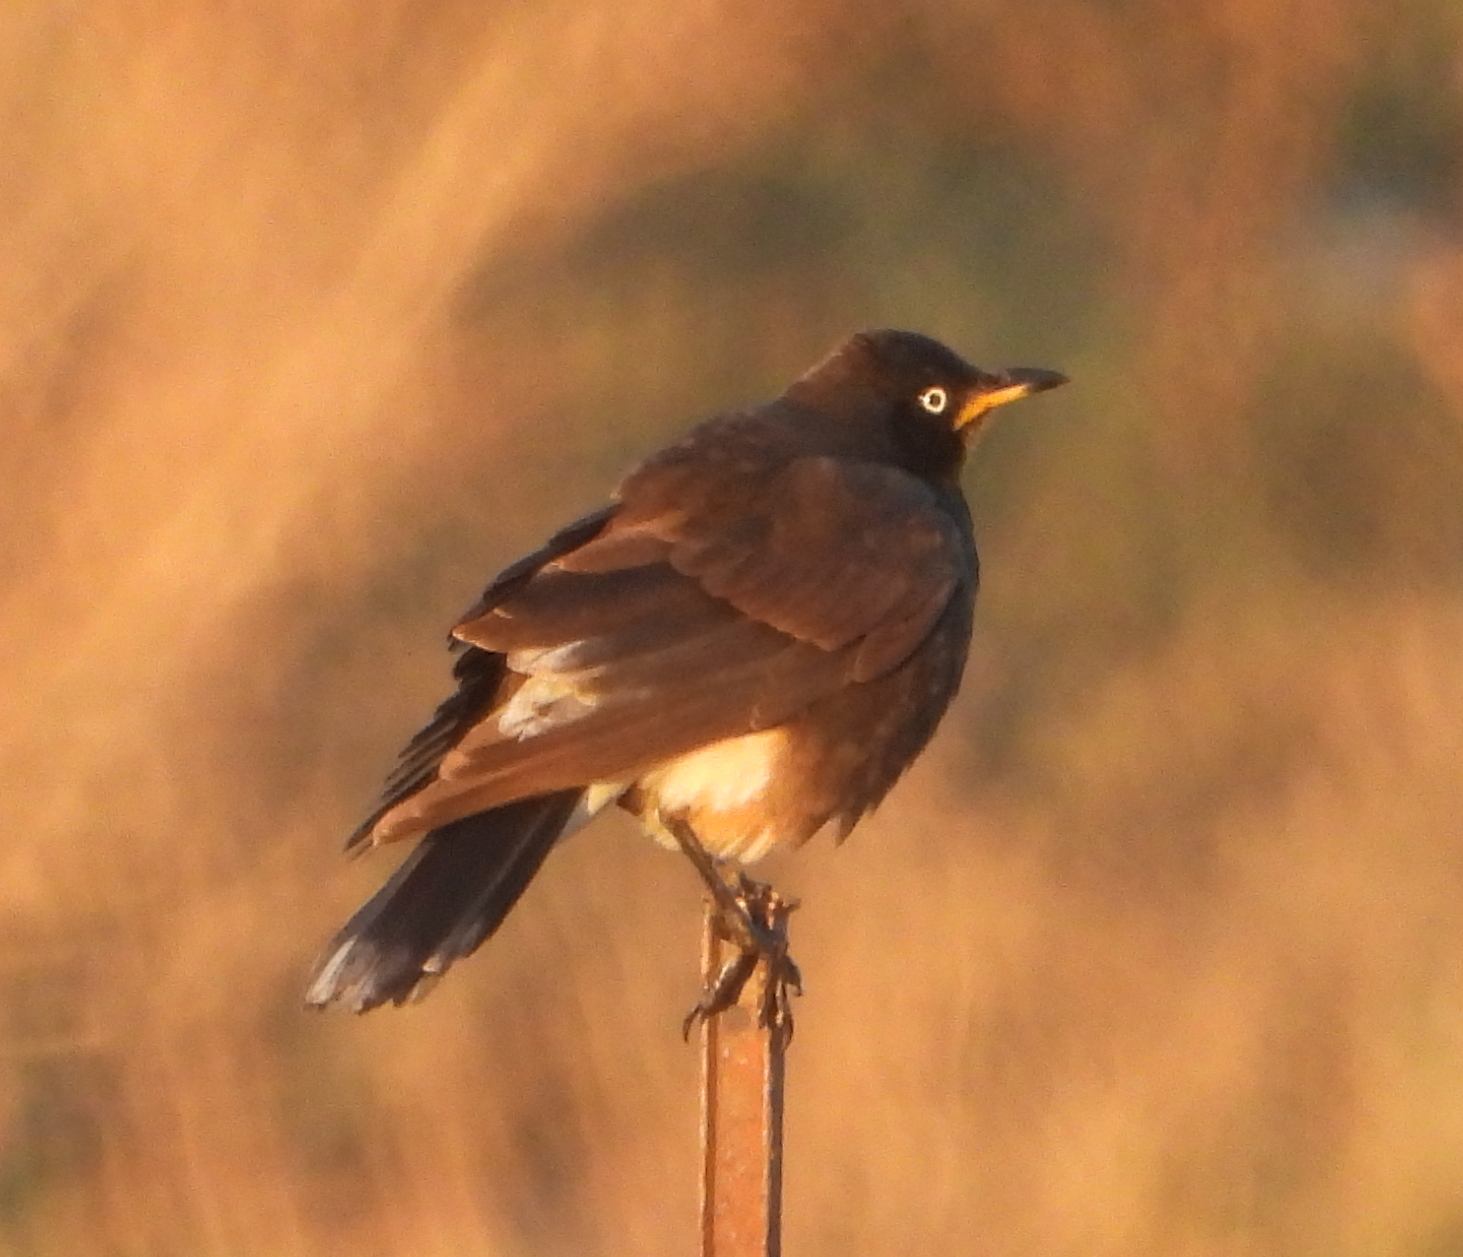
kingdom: Animalia
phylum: Chordata
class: Aves
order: Passeriformes
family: Sturnidae
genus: Lamprotornis
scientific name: Lamprotornis bicolor
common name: Pied starling
